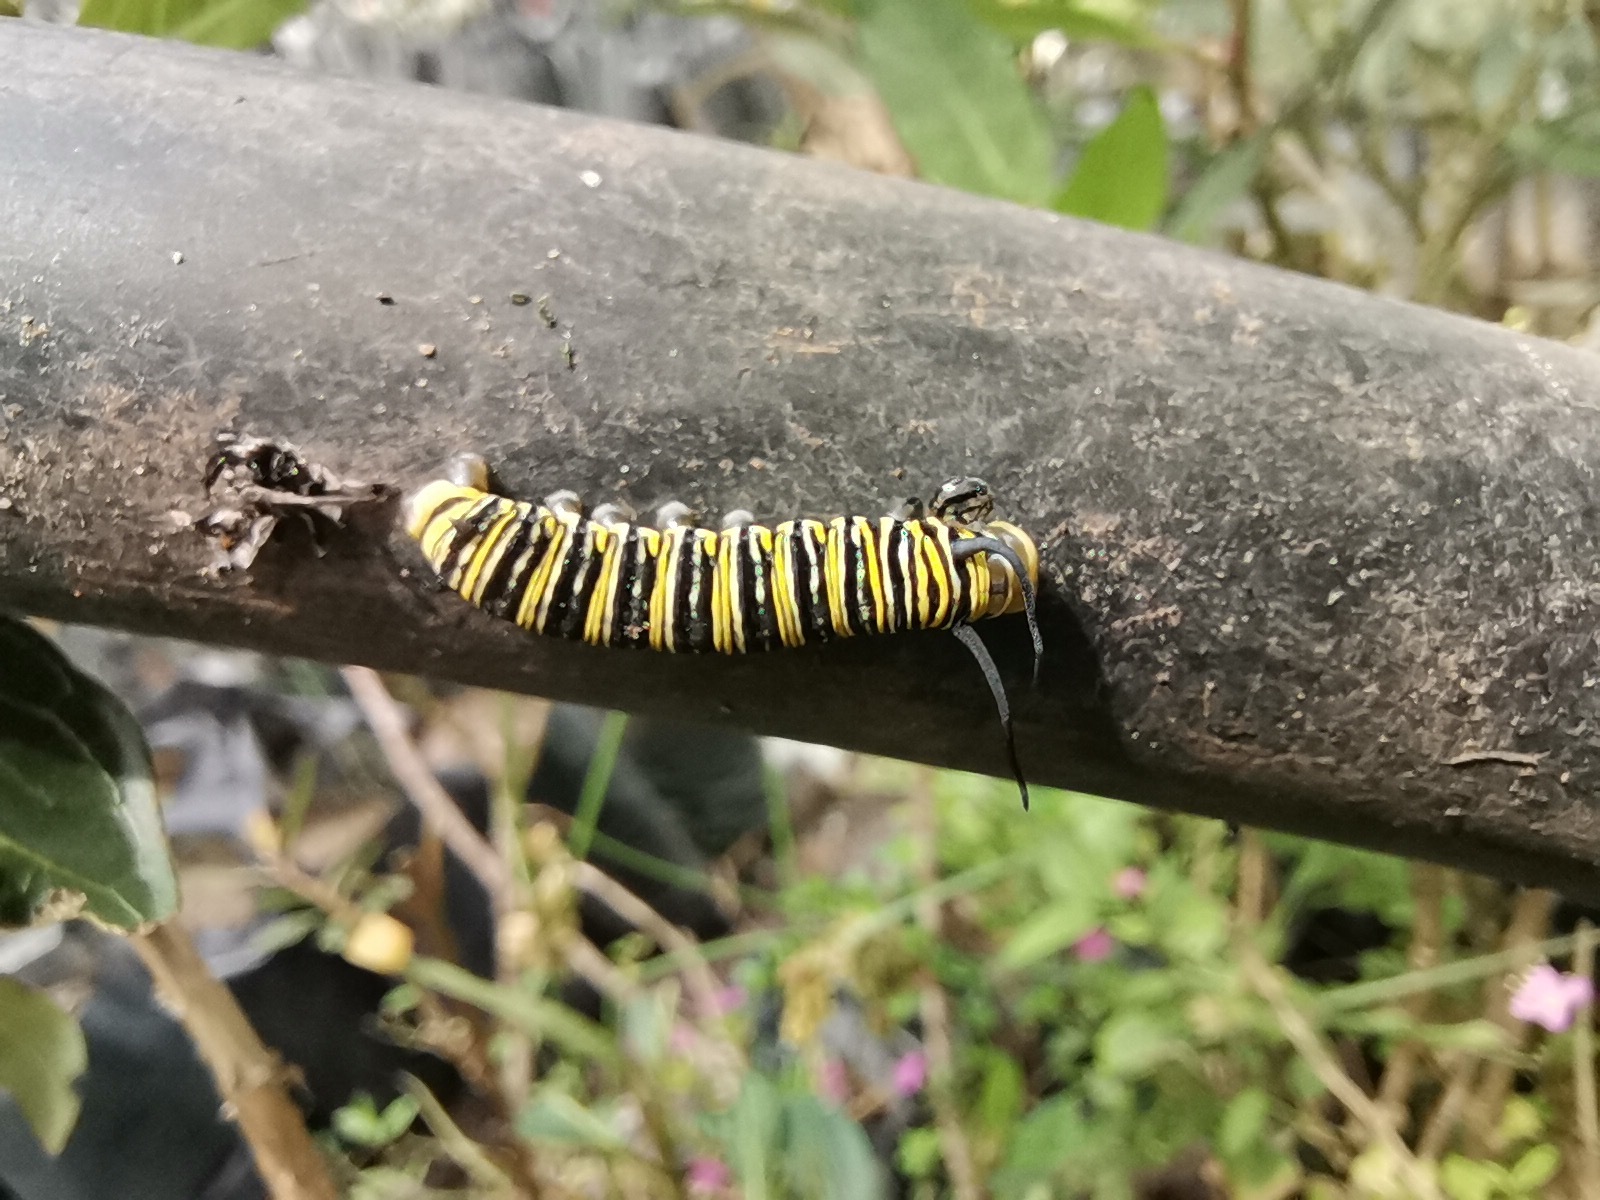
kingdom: Animalia
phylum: Arthropoda
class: Insecta
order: Lepidoptera
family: Nymphalidae
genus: Danaus
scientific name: Danaus plexippus
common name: Monarch
